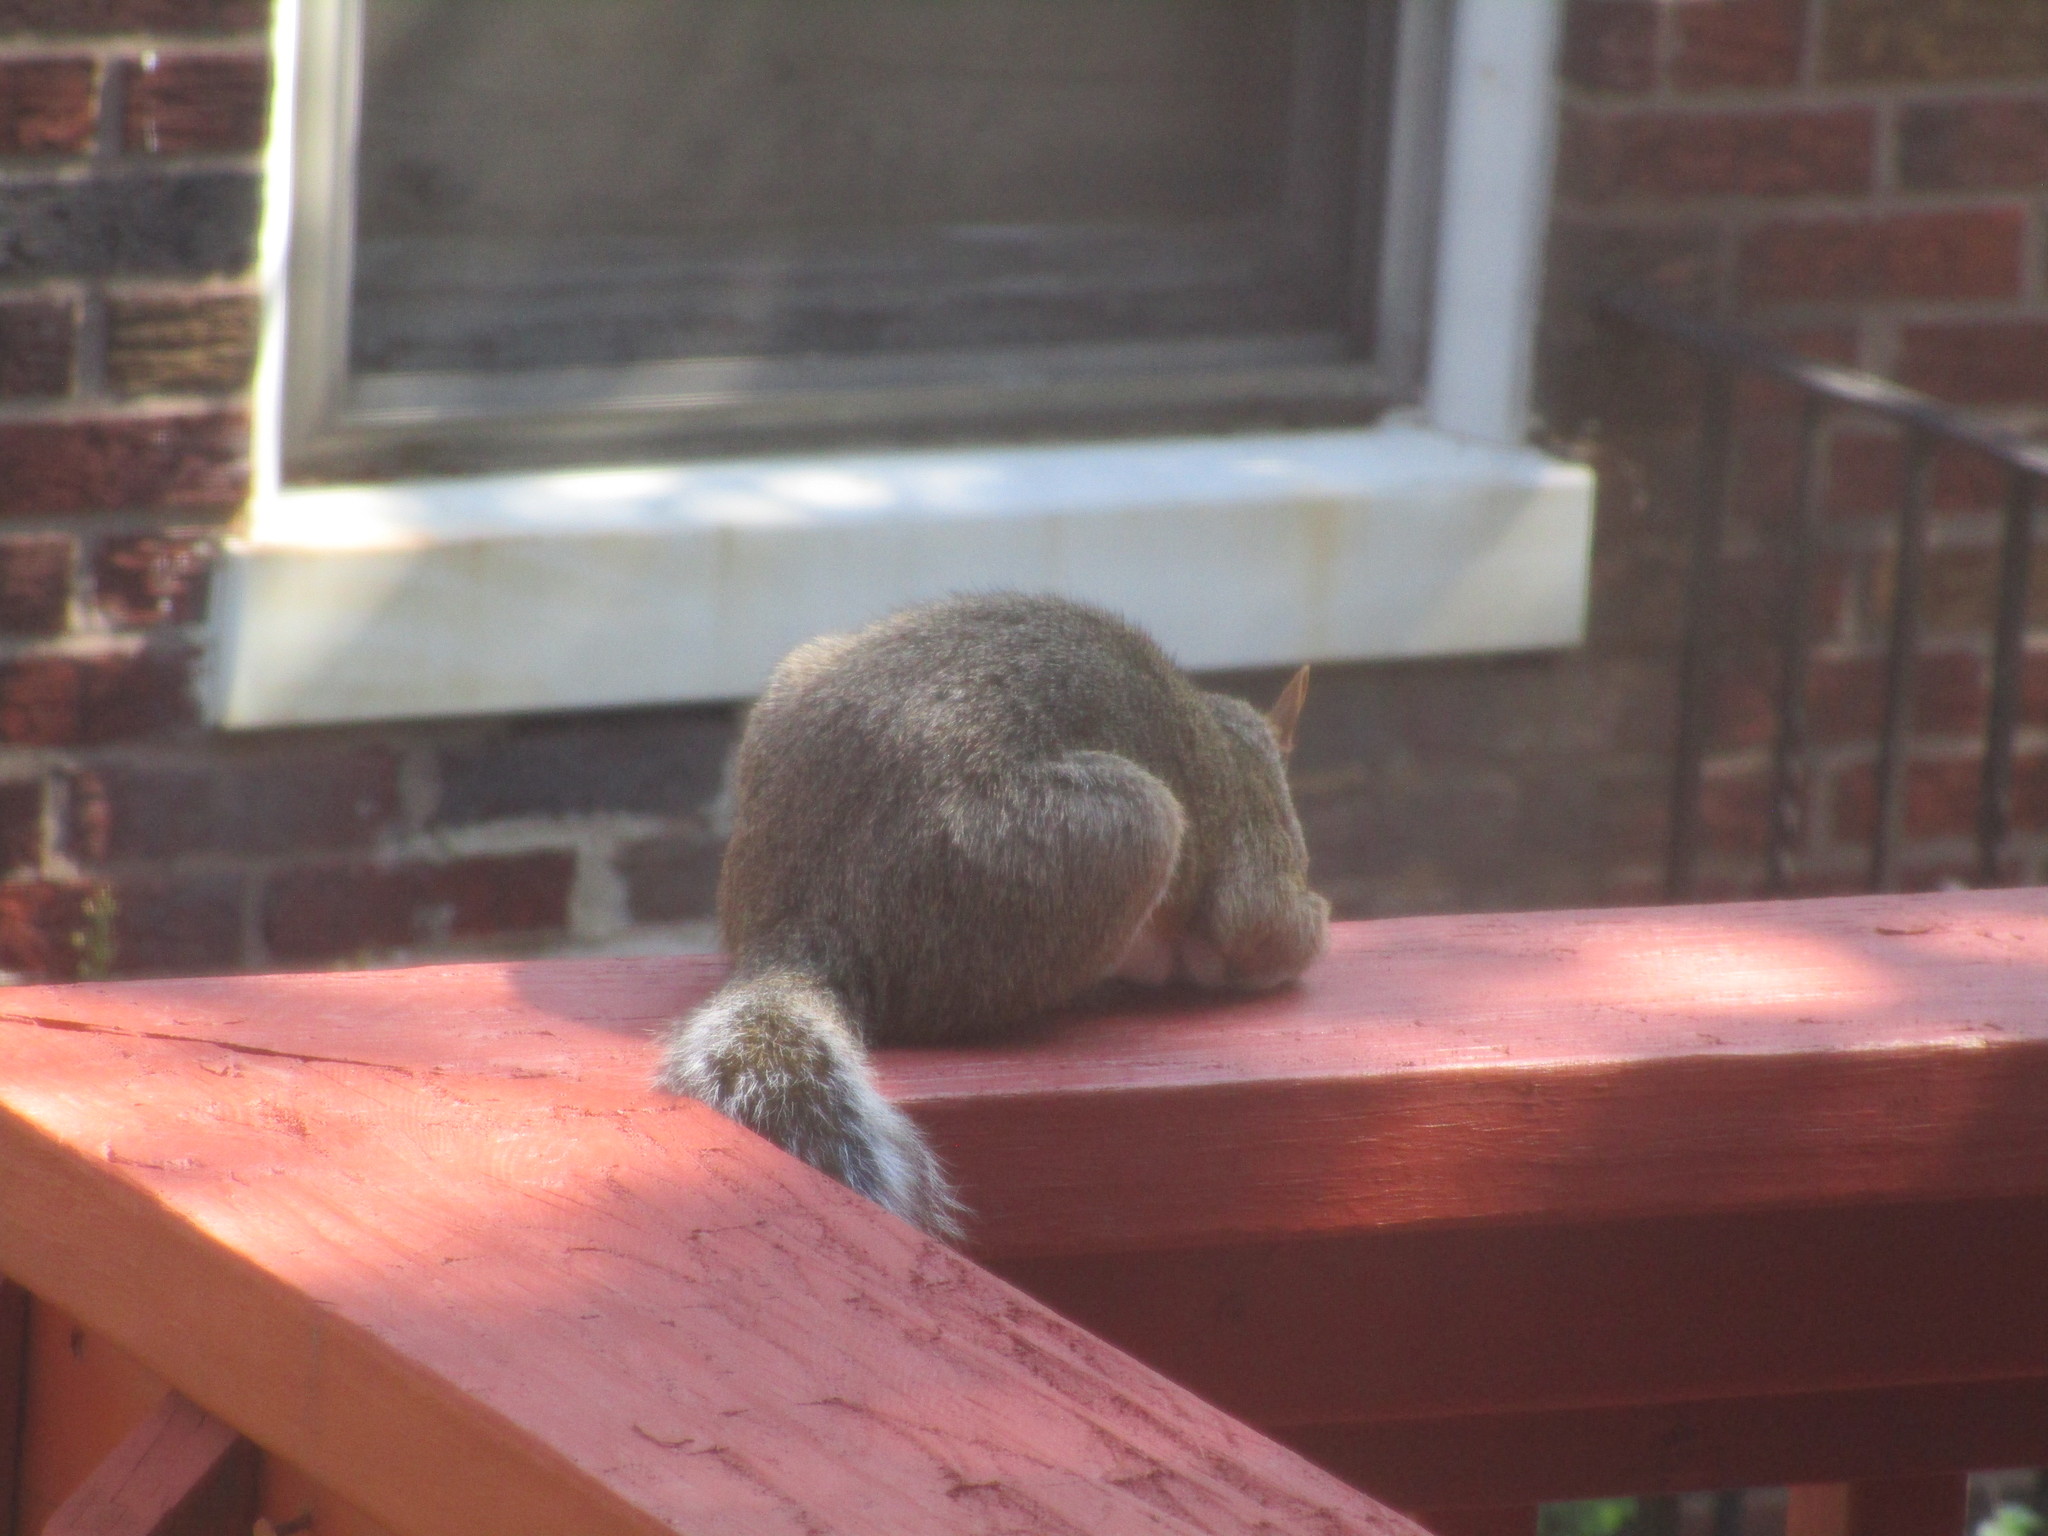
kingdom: Animalia
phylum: Chordata
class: Mammalia
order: Rodentia
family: Sciuridae
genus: Sciurus
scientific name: Sciurus carolinensis
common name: Eastern gray squirrel
